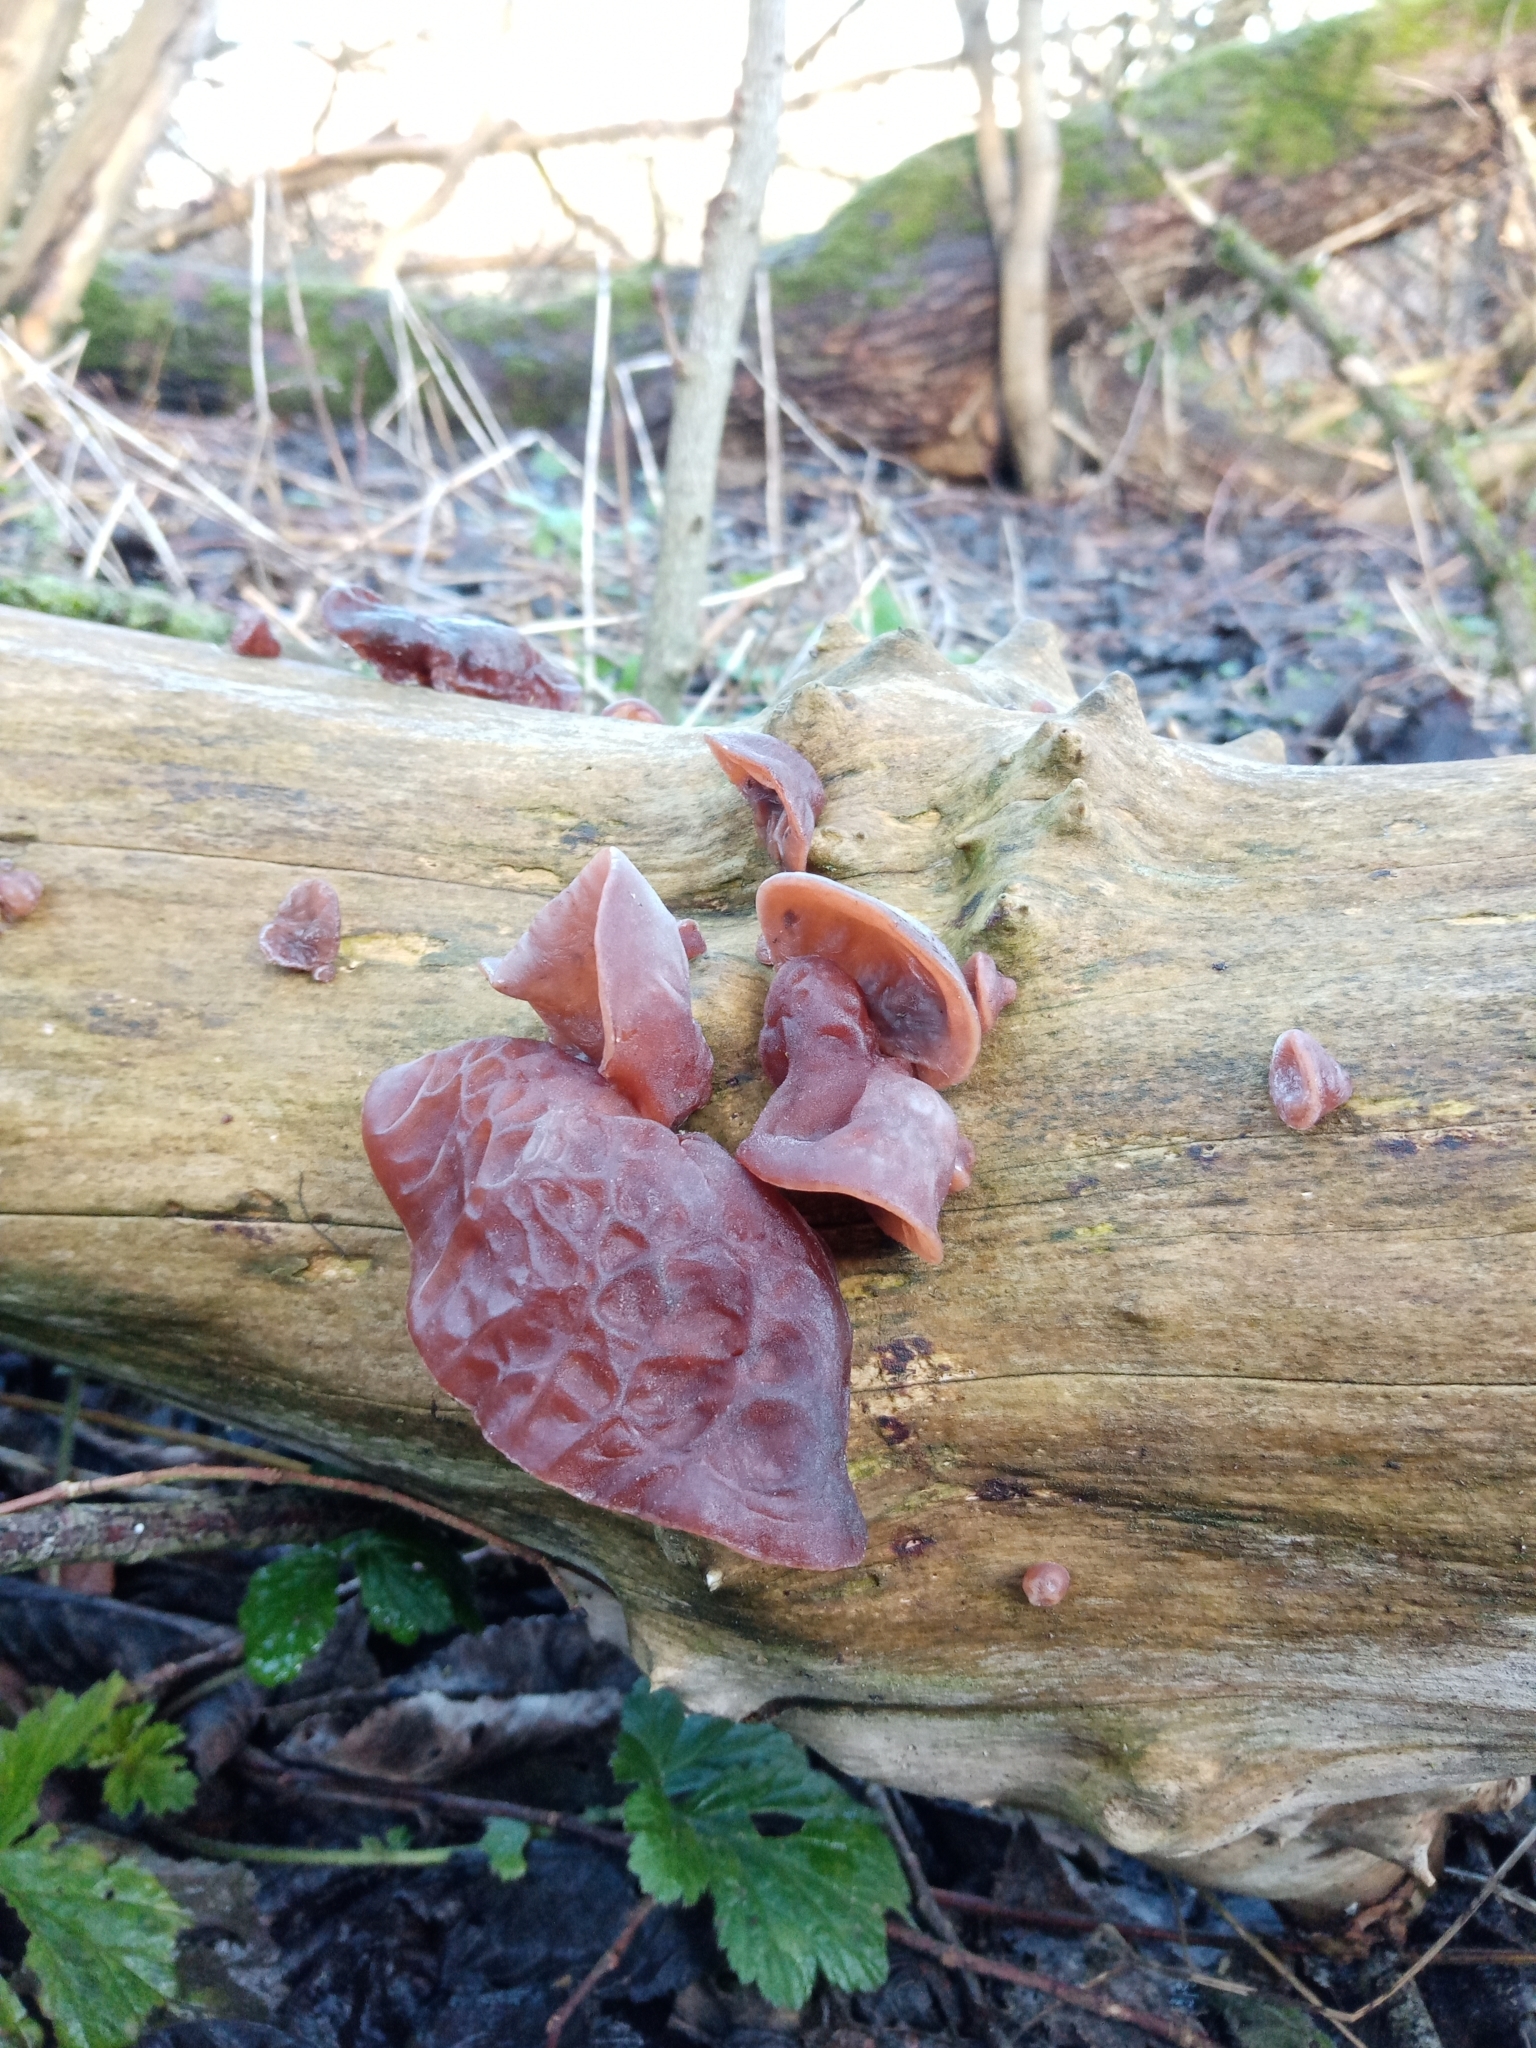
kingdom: Fungi
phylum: Basidiomycota
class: Agaricomycetes
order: Auriculariales
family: Auriculariaceae
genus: Auricularia
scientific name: Auricularia auricula-judae
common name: Jelly ear
